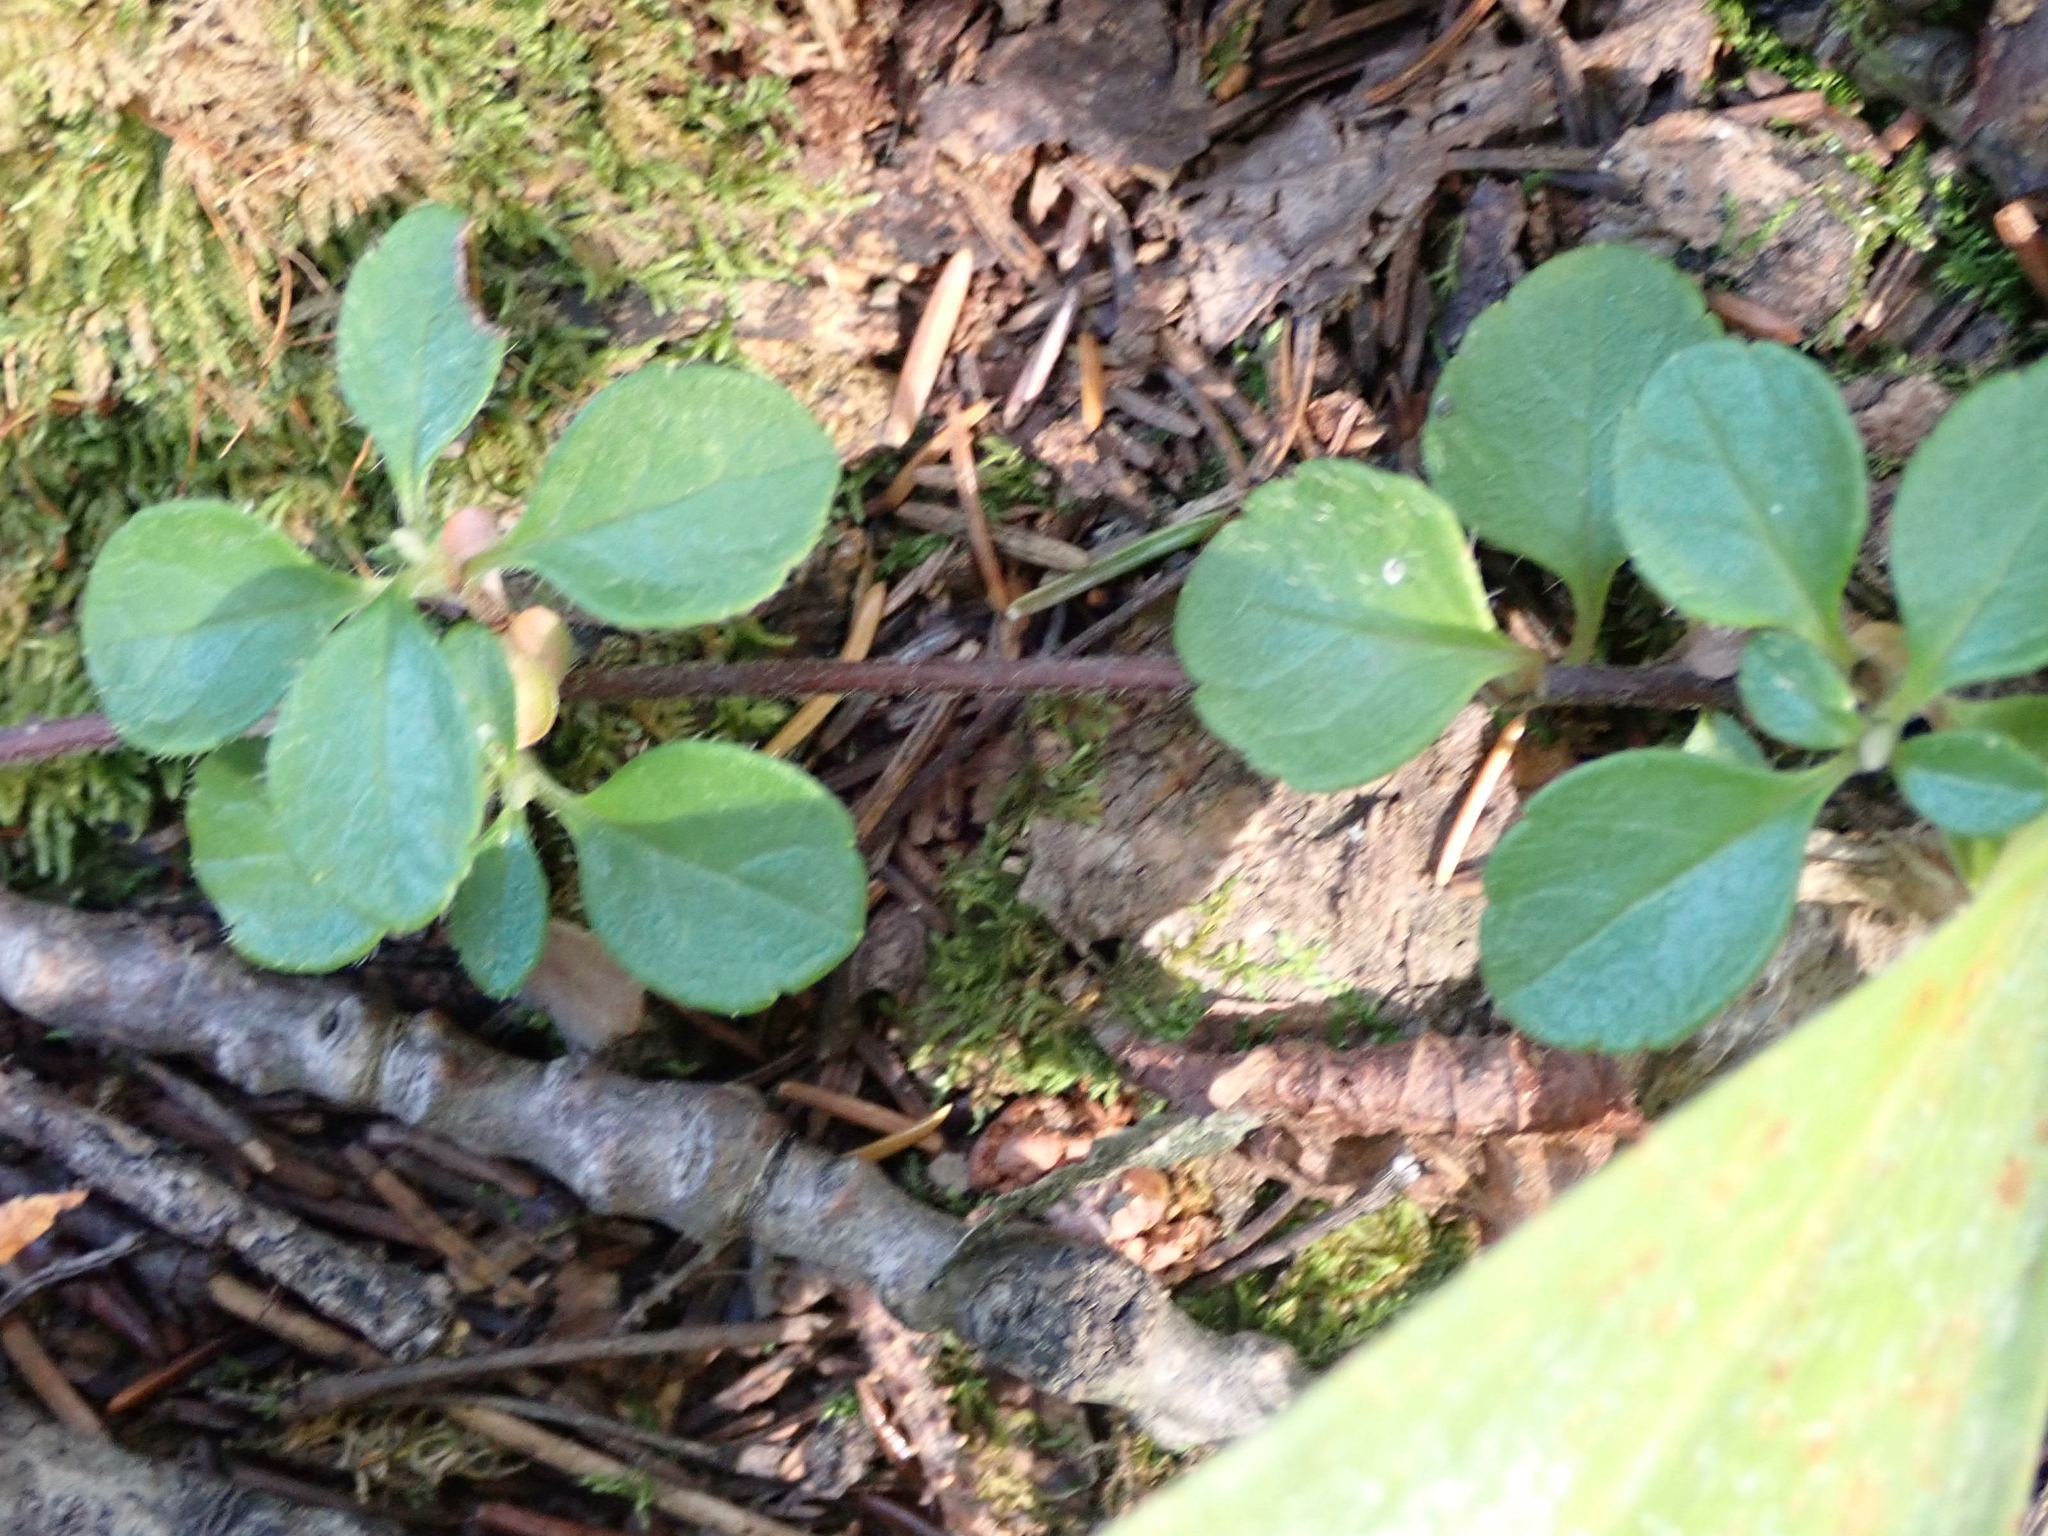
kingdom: Plantae
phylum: Tracheophyta
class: Magnoliopsida
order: Dipsacales
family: Caprifoliaceae
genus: Linnaea
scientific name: Linnaea borealis
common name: Twinflower
